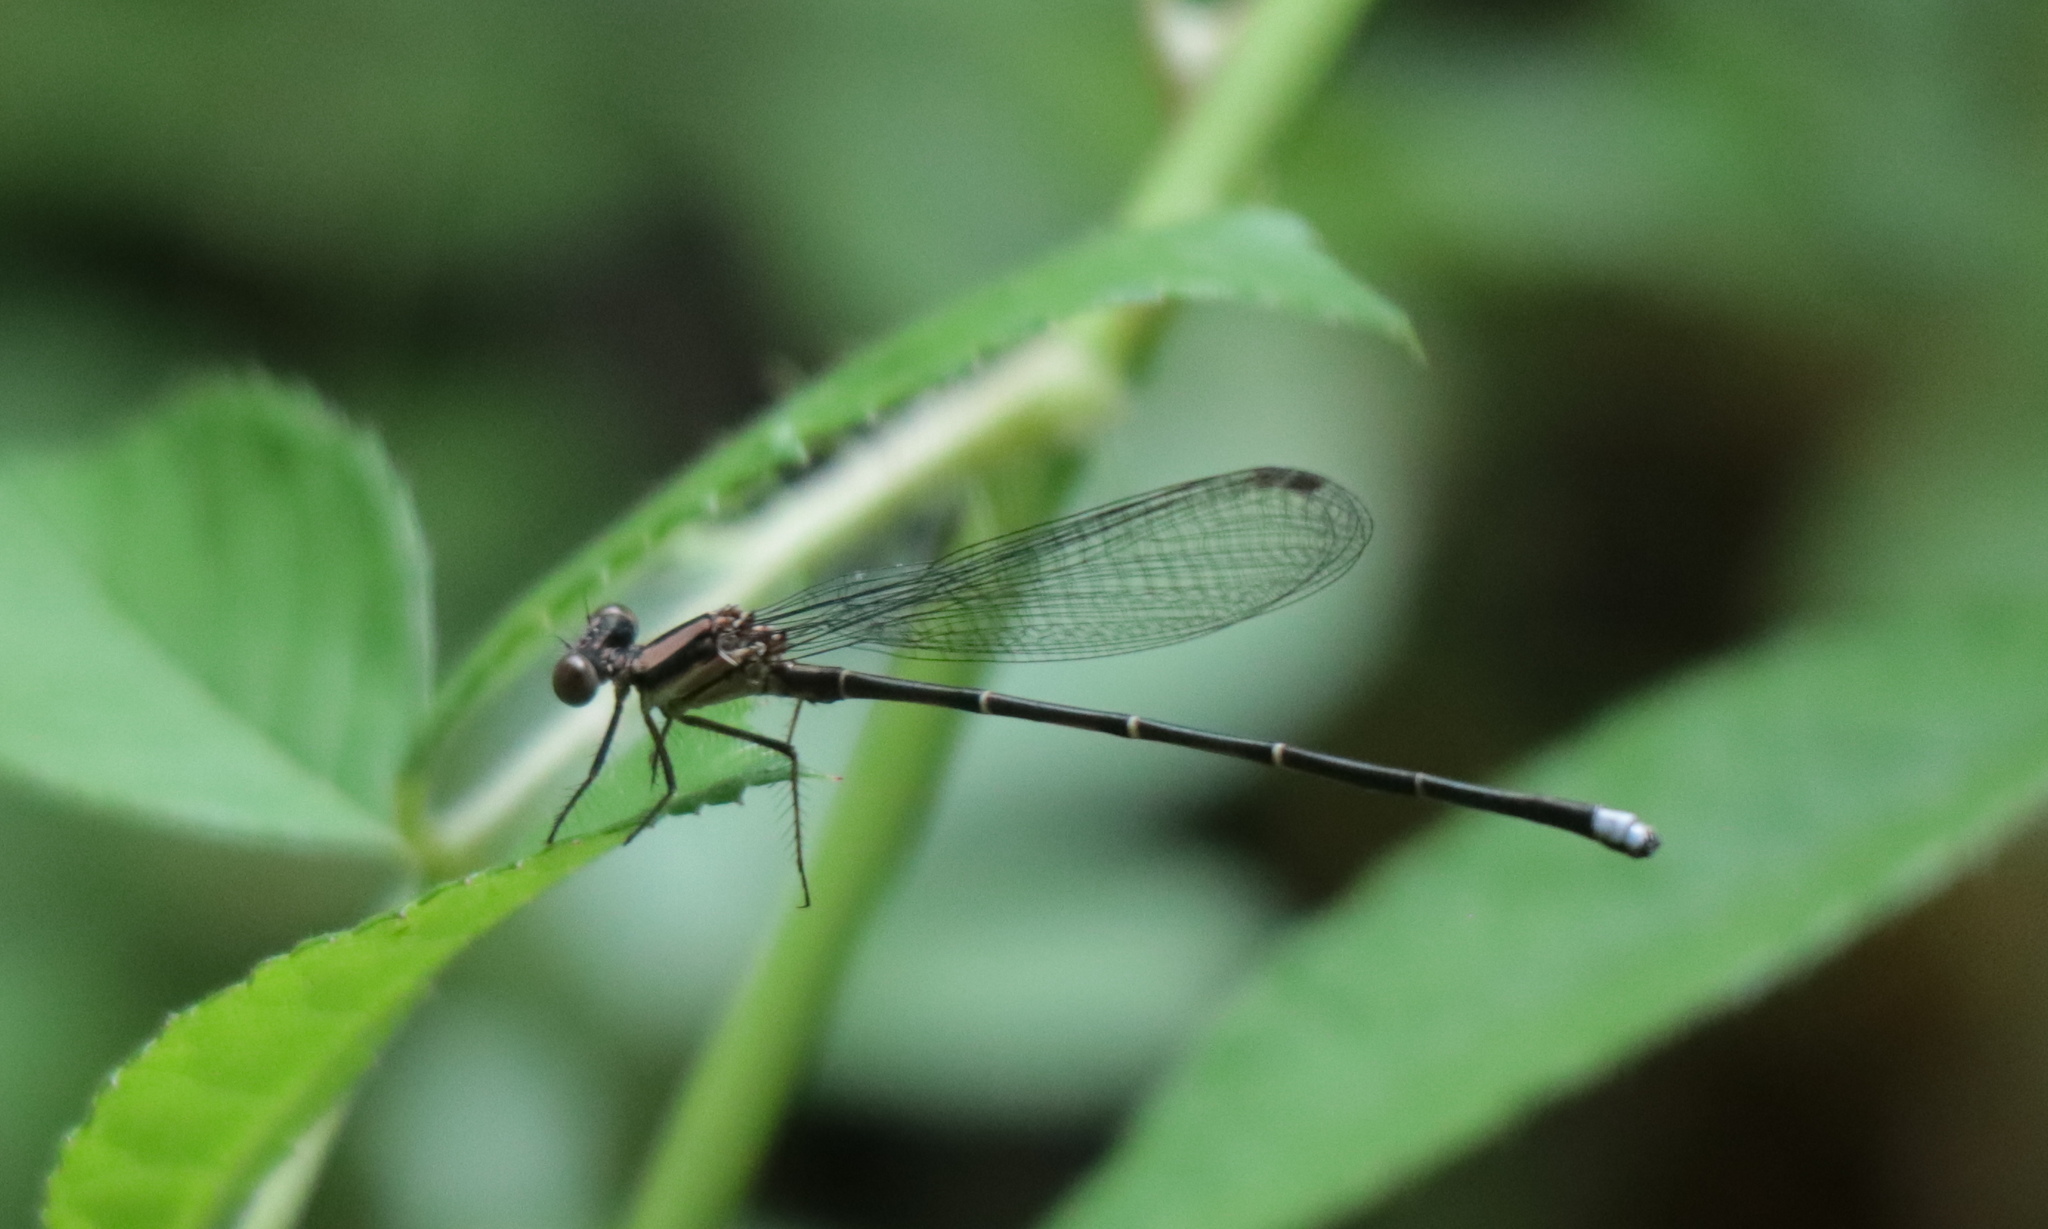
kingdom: Animalia
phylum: Arthropoda
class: Insecta
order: Odonata
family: Coenagrionidae
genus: Argia
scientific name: Argia tibialis
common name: Blue-tipped dancer
